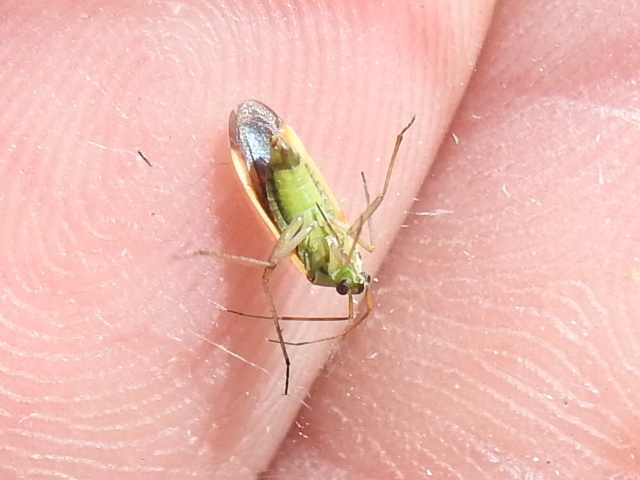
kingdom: Animalia
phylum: Arthropoda
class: Insecta
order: Hemiptera
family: Miridae
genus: Stenotus
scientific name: Stenotus binotatus
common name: Plant bug
